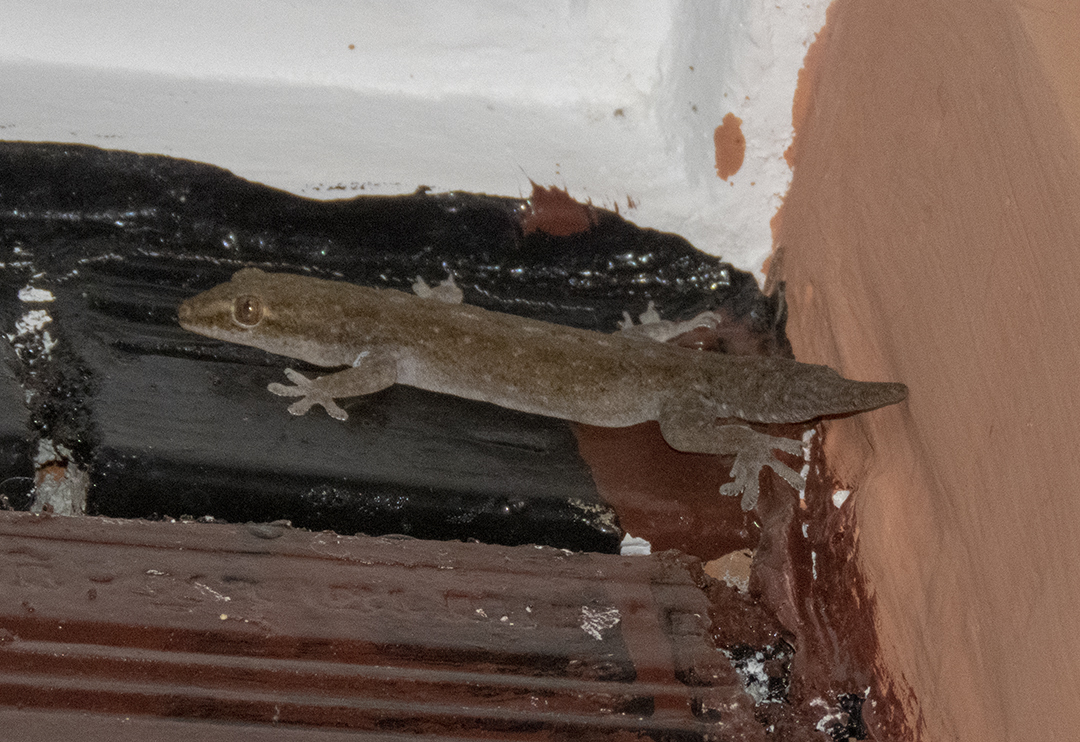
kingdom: Animalia
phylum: Chordata
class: Squamata
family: Gekkonidae
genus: Hemidactylus
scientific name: Hemidactylus frenatus
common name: Common house gecko
